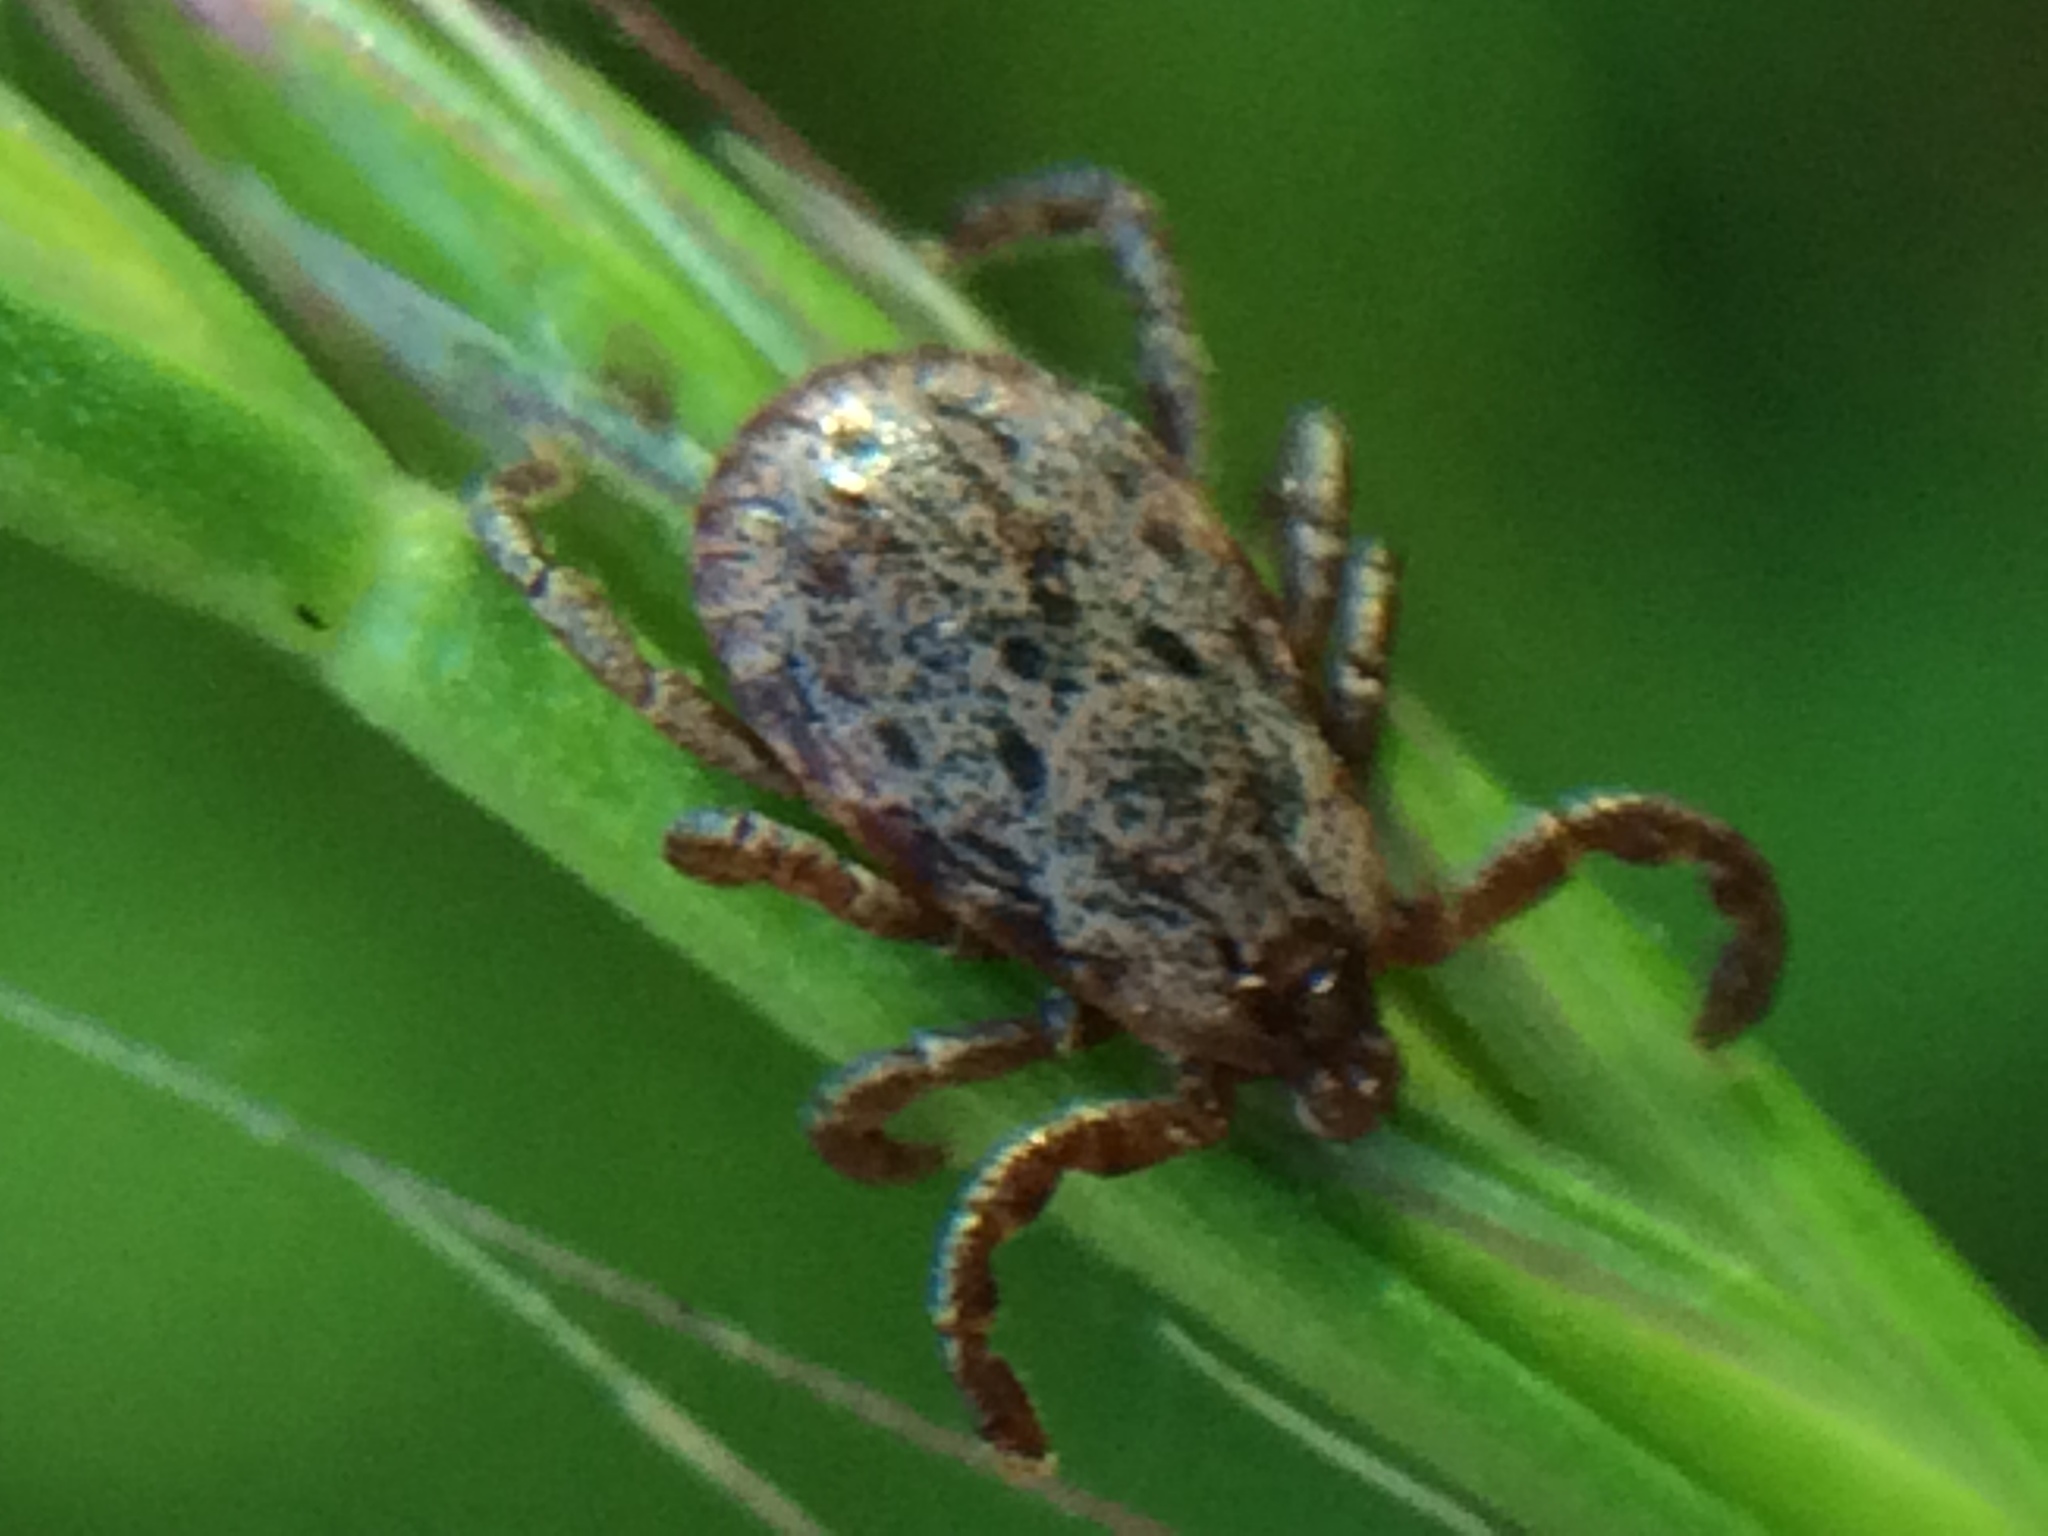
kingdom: Animalia
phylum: Arthropoda
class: Arachnida
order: Ixodida
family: Ixodidae
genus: Dermacentor
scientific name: Dermacentor variabilis
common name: American dog tick
